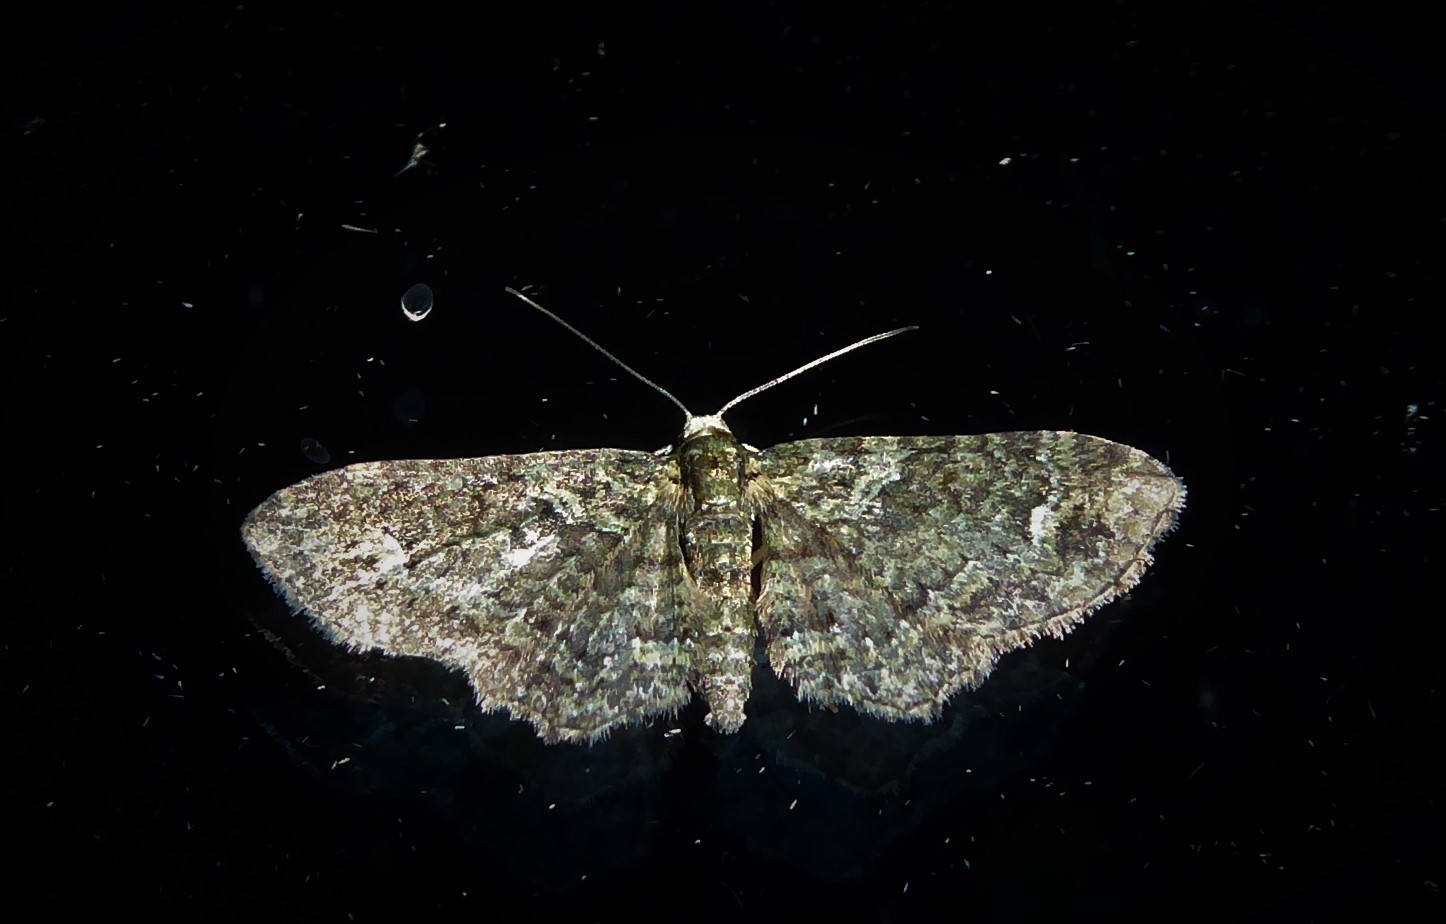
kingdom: Animalia
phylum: Arthropoda
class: Insecta
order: Lepidoptera
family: Geometridae
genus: Pasiphilodes
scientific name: Pasiphilodes testulata
